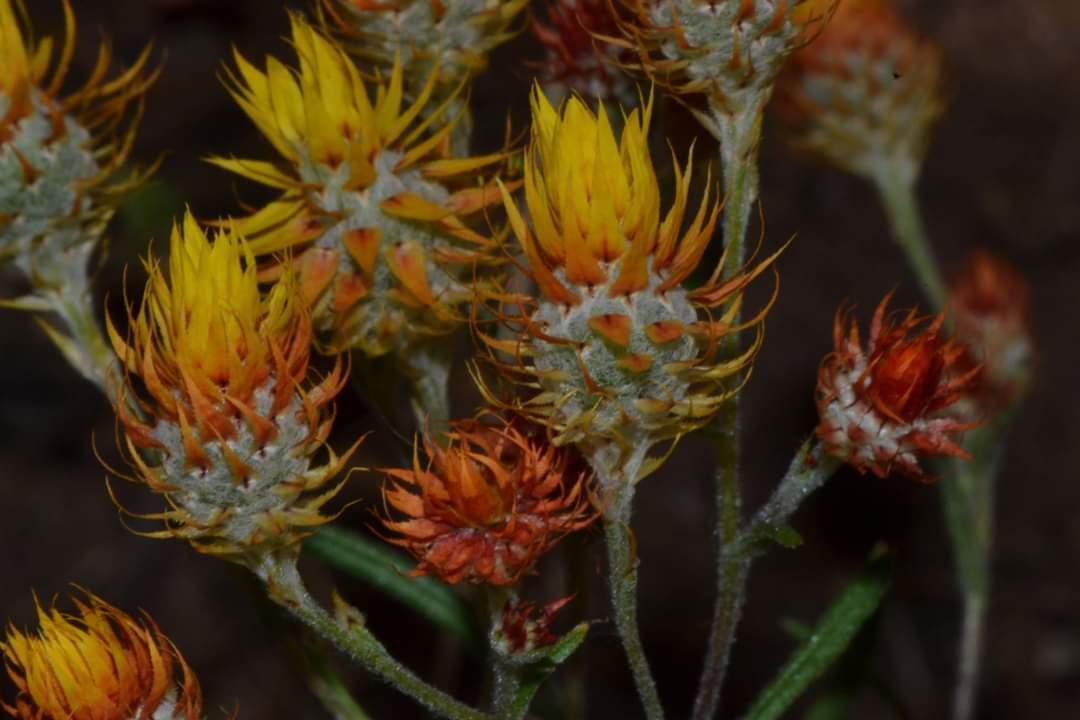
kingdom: Plantae
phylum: Tracheophyta
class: Magnoliopsida
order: Asterales
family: Asteraceae
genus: Waitzia
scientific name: Waitzia acuminata
